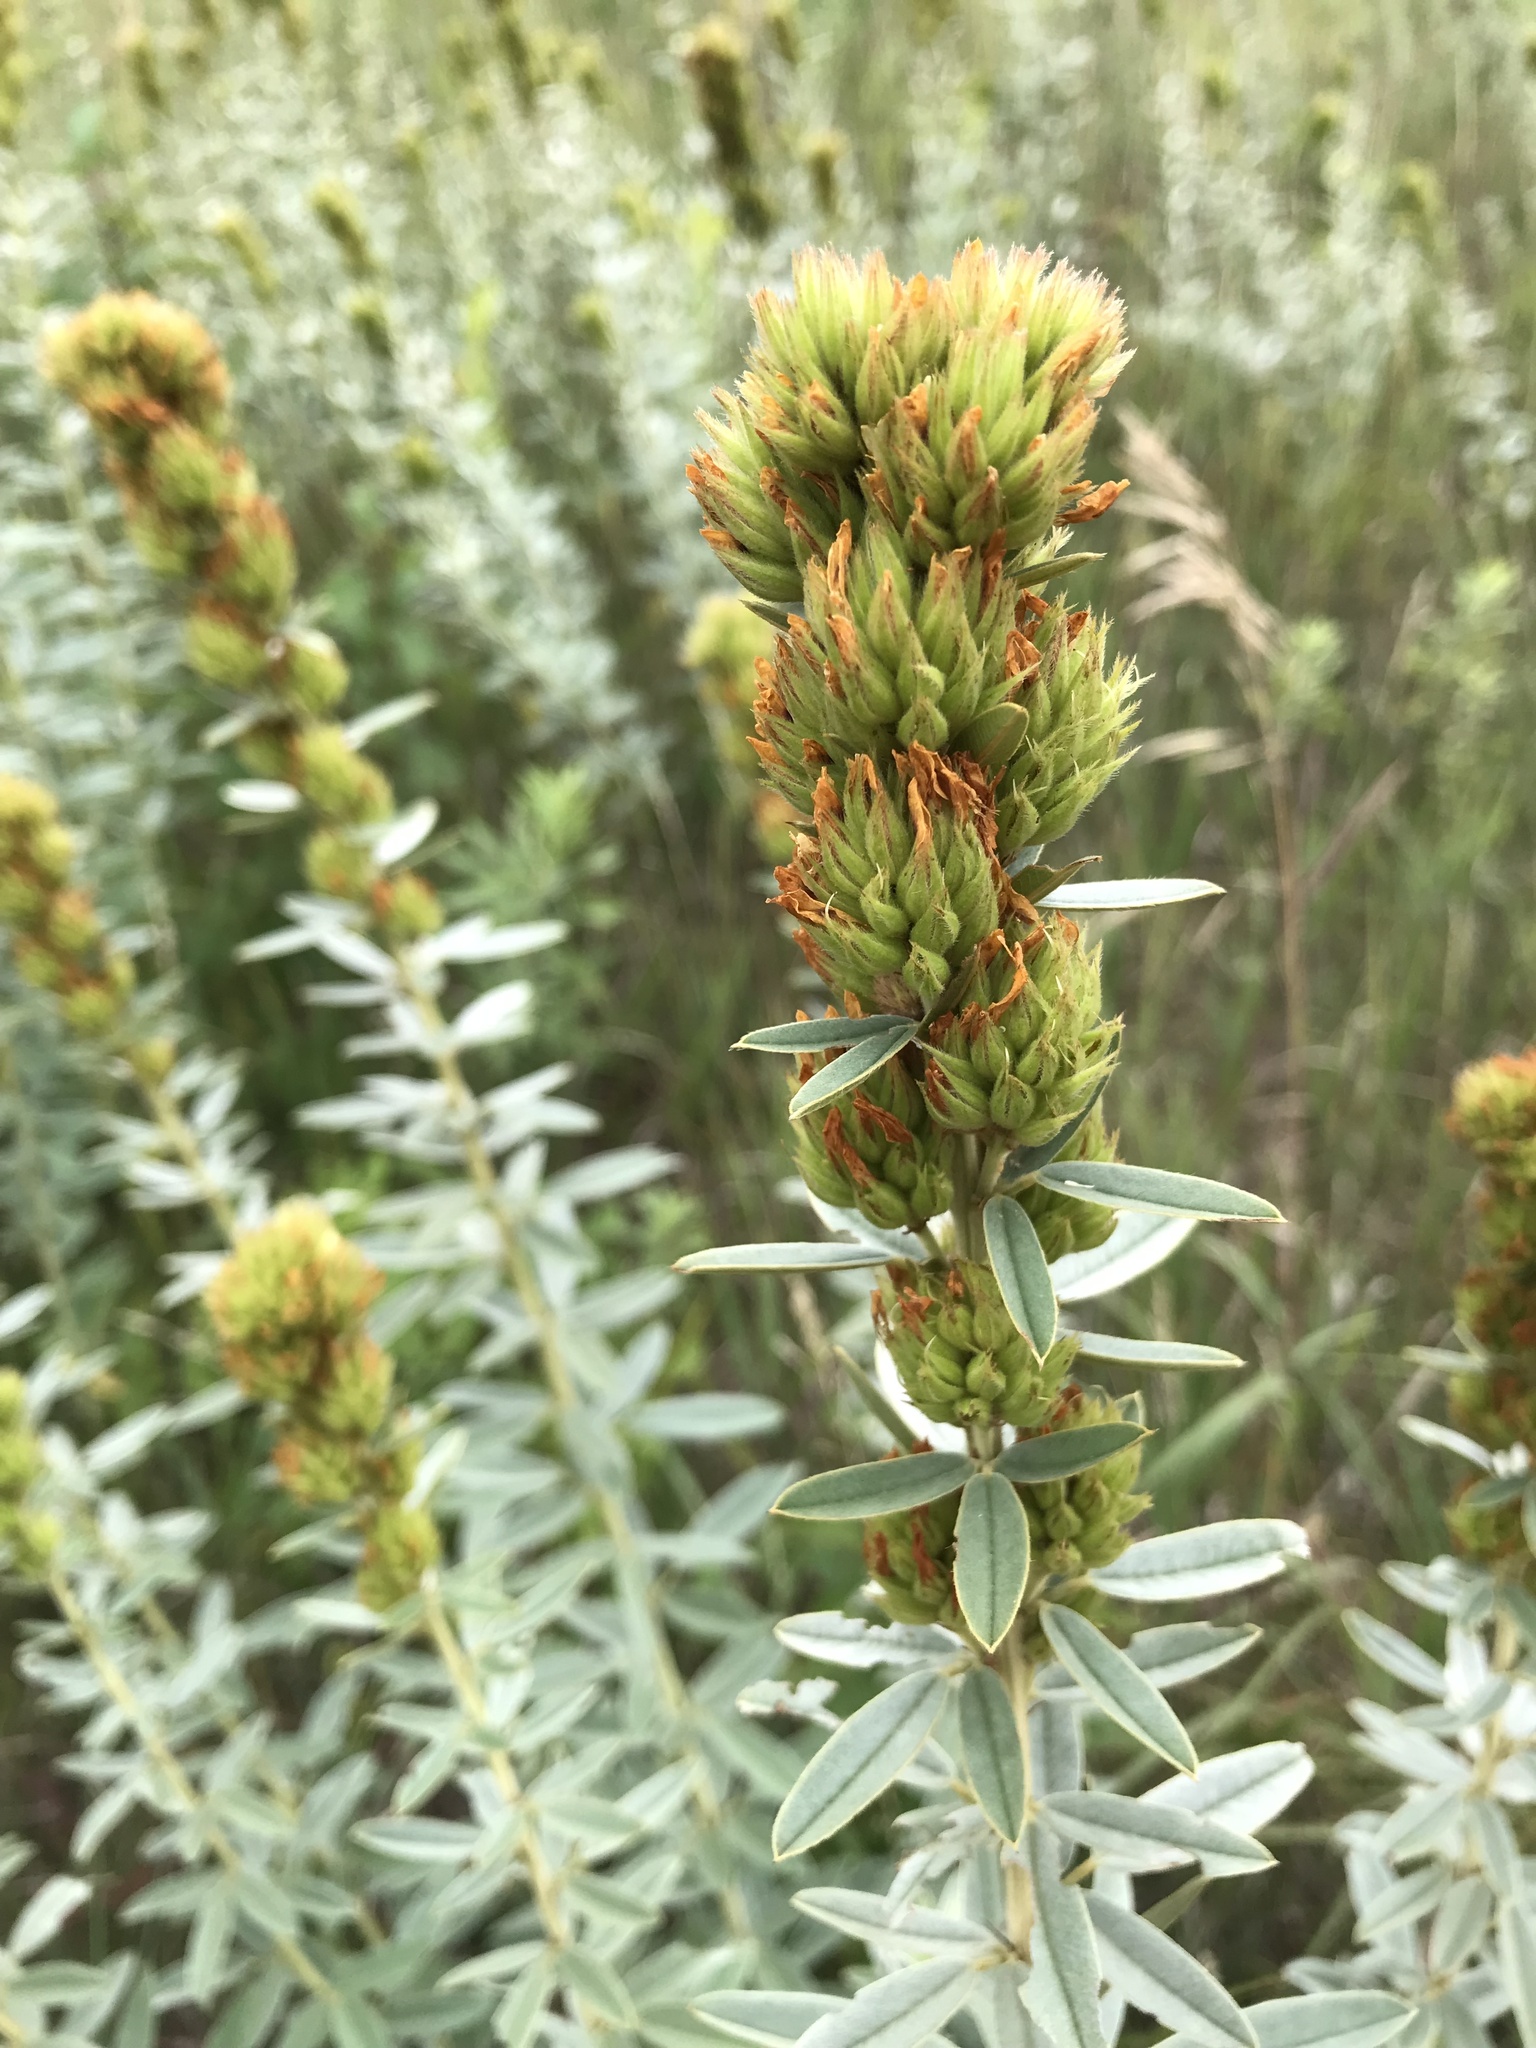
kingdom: Plantae
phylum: Tracheophyta
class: Magnoliopsida
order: Fabales
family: Fabaceae
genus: Lespedeza
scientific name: Lespedeza capitata
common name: Dusty clover
